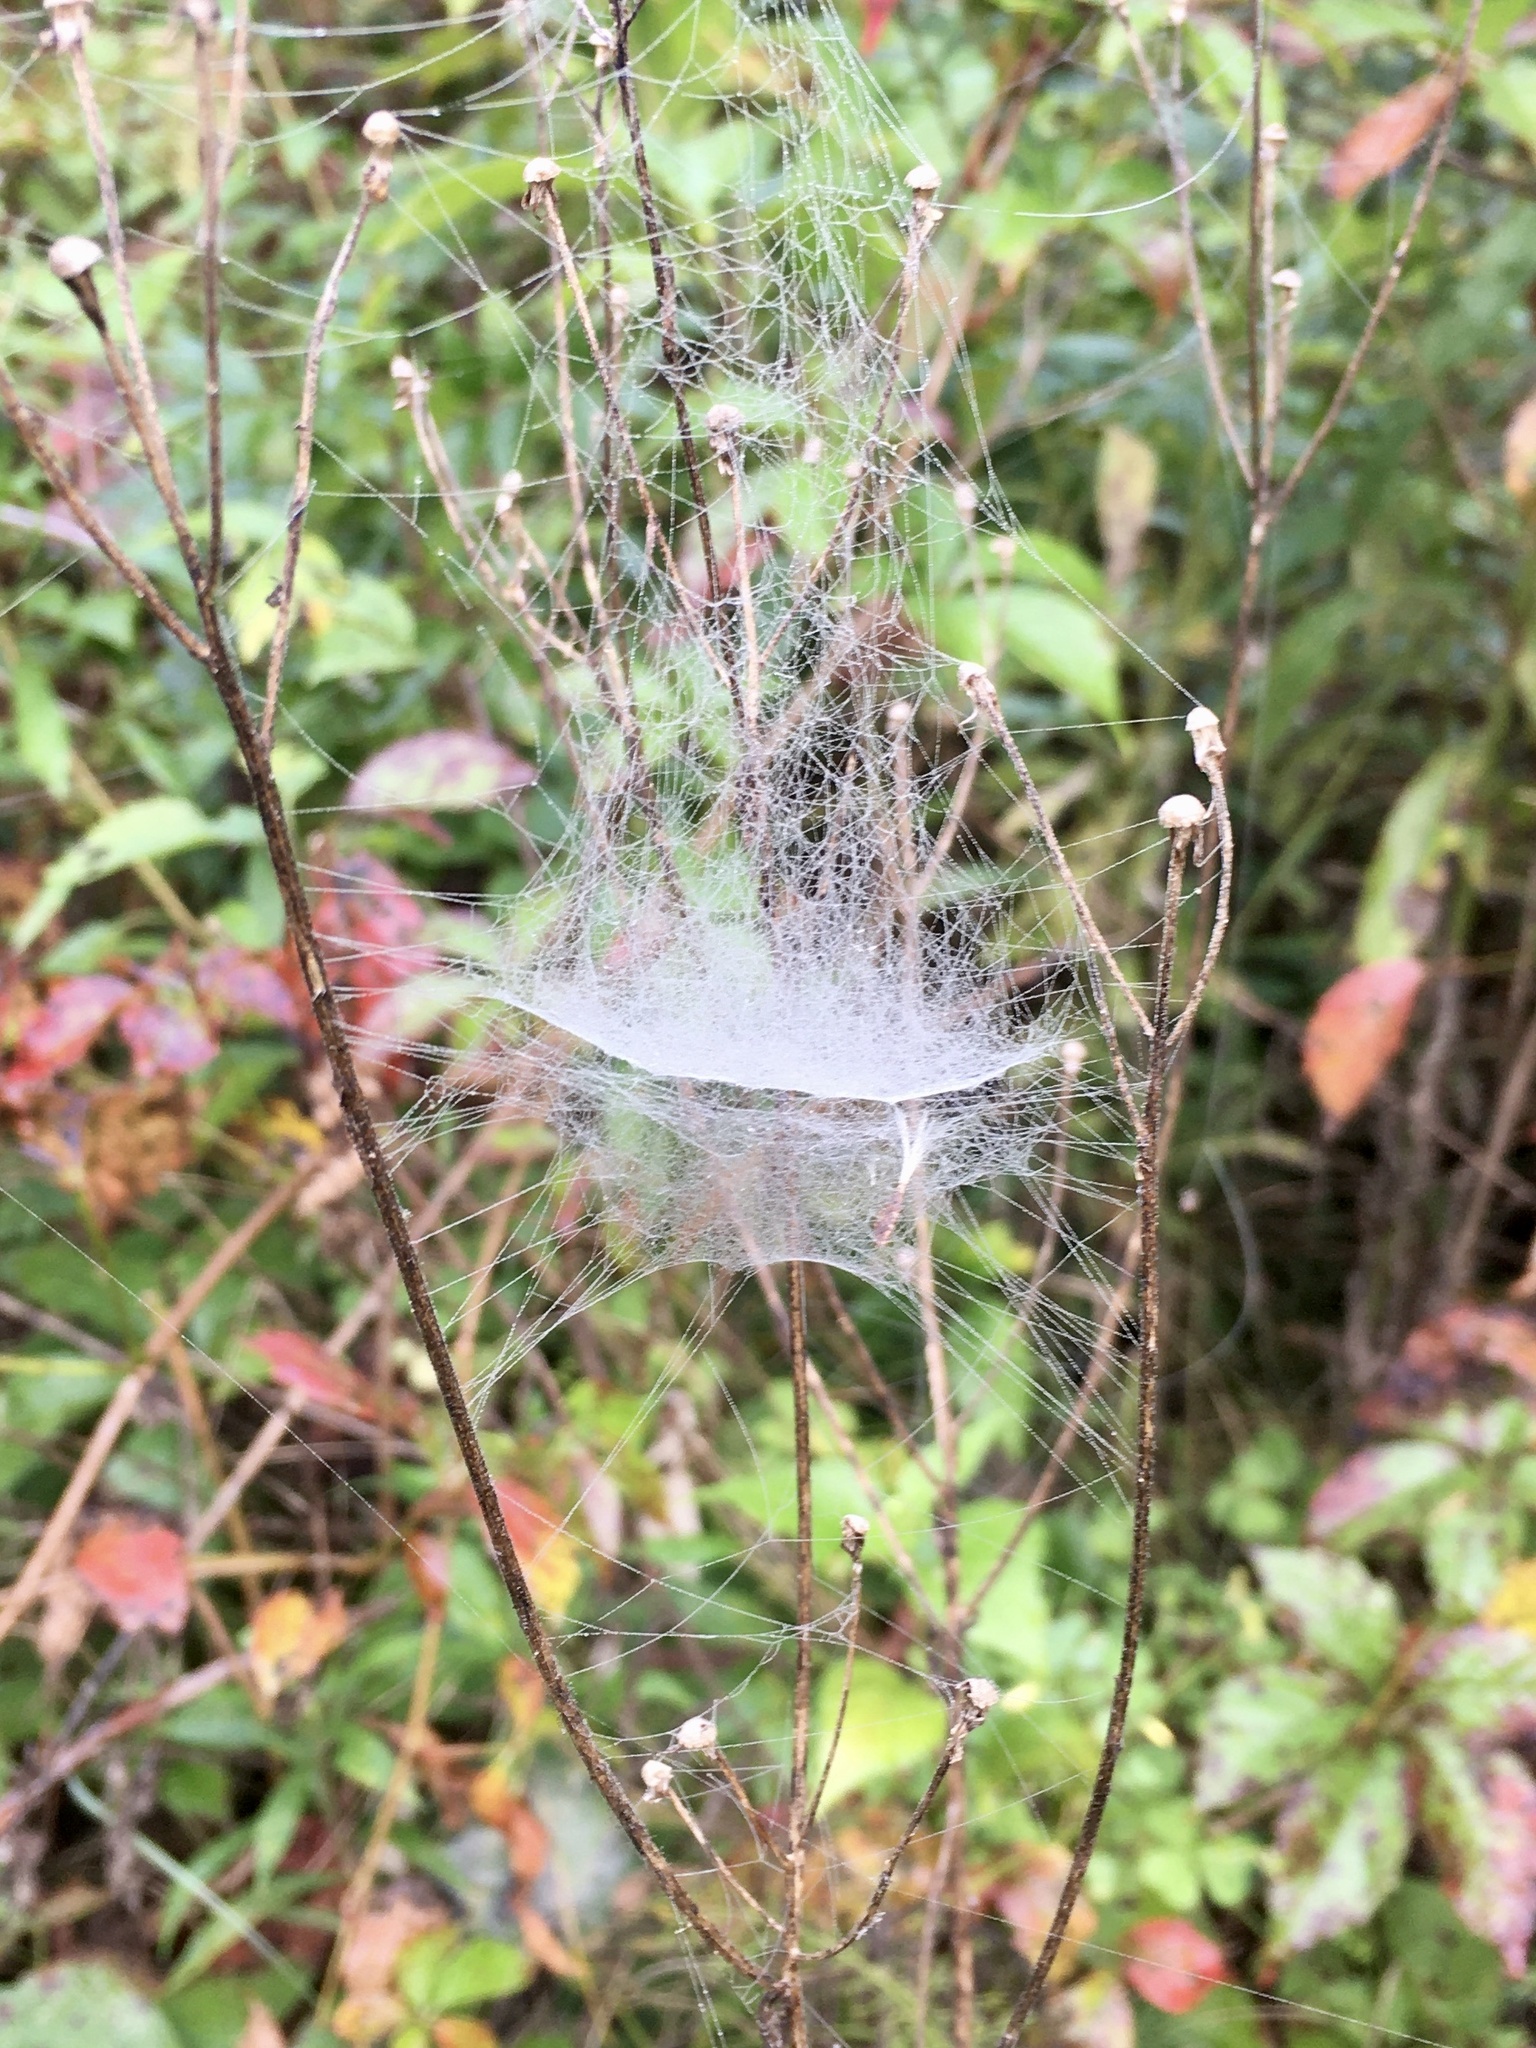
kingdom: Animalia
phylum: Arthropoda
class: Arachnida
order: Araneae
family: Linyphiidae
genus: Frontinella
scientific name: Frontinella pyramitela
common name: Bowl-and-doily spider
